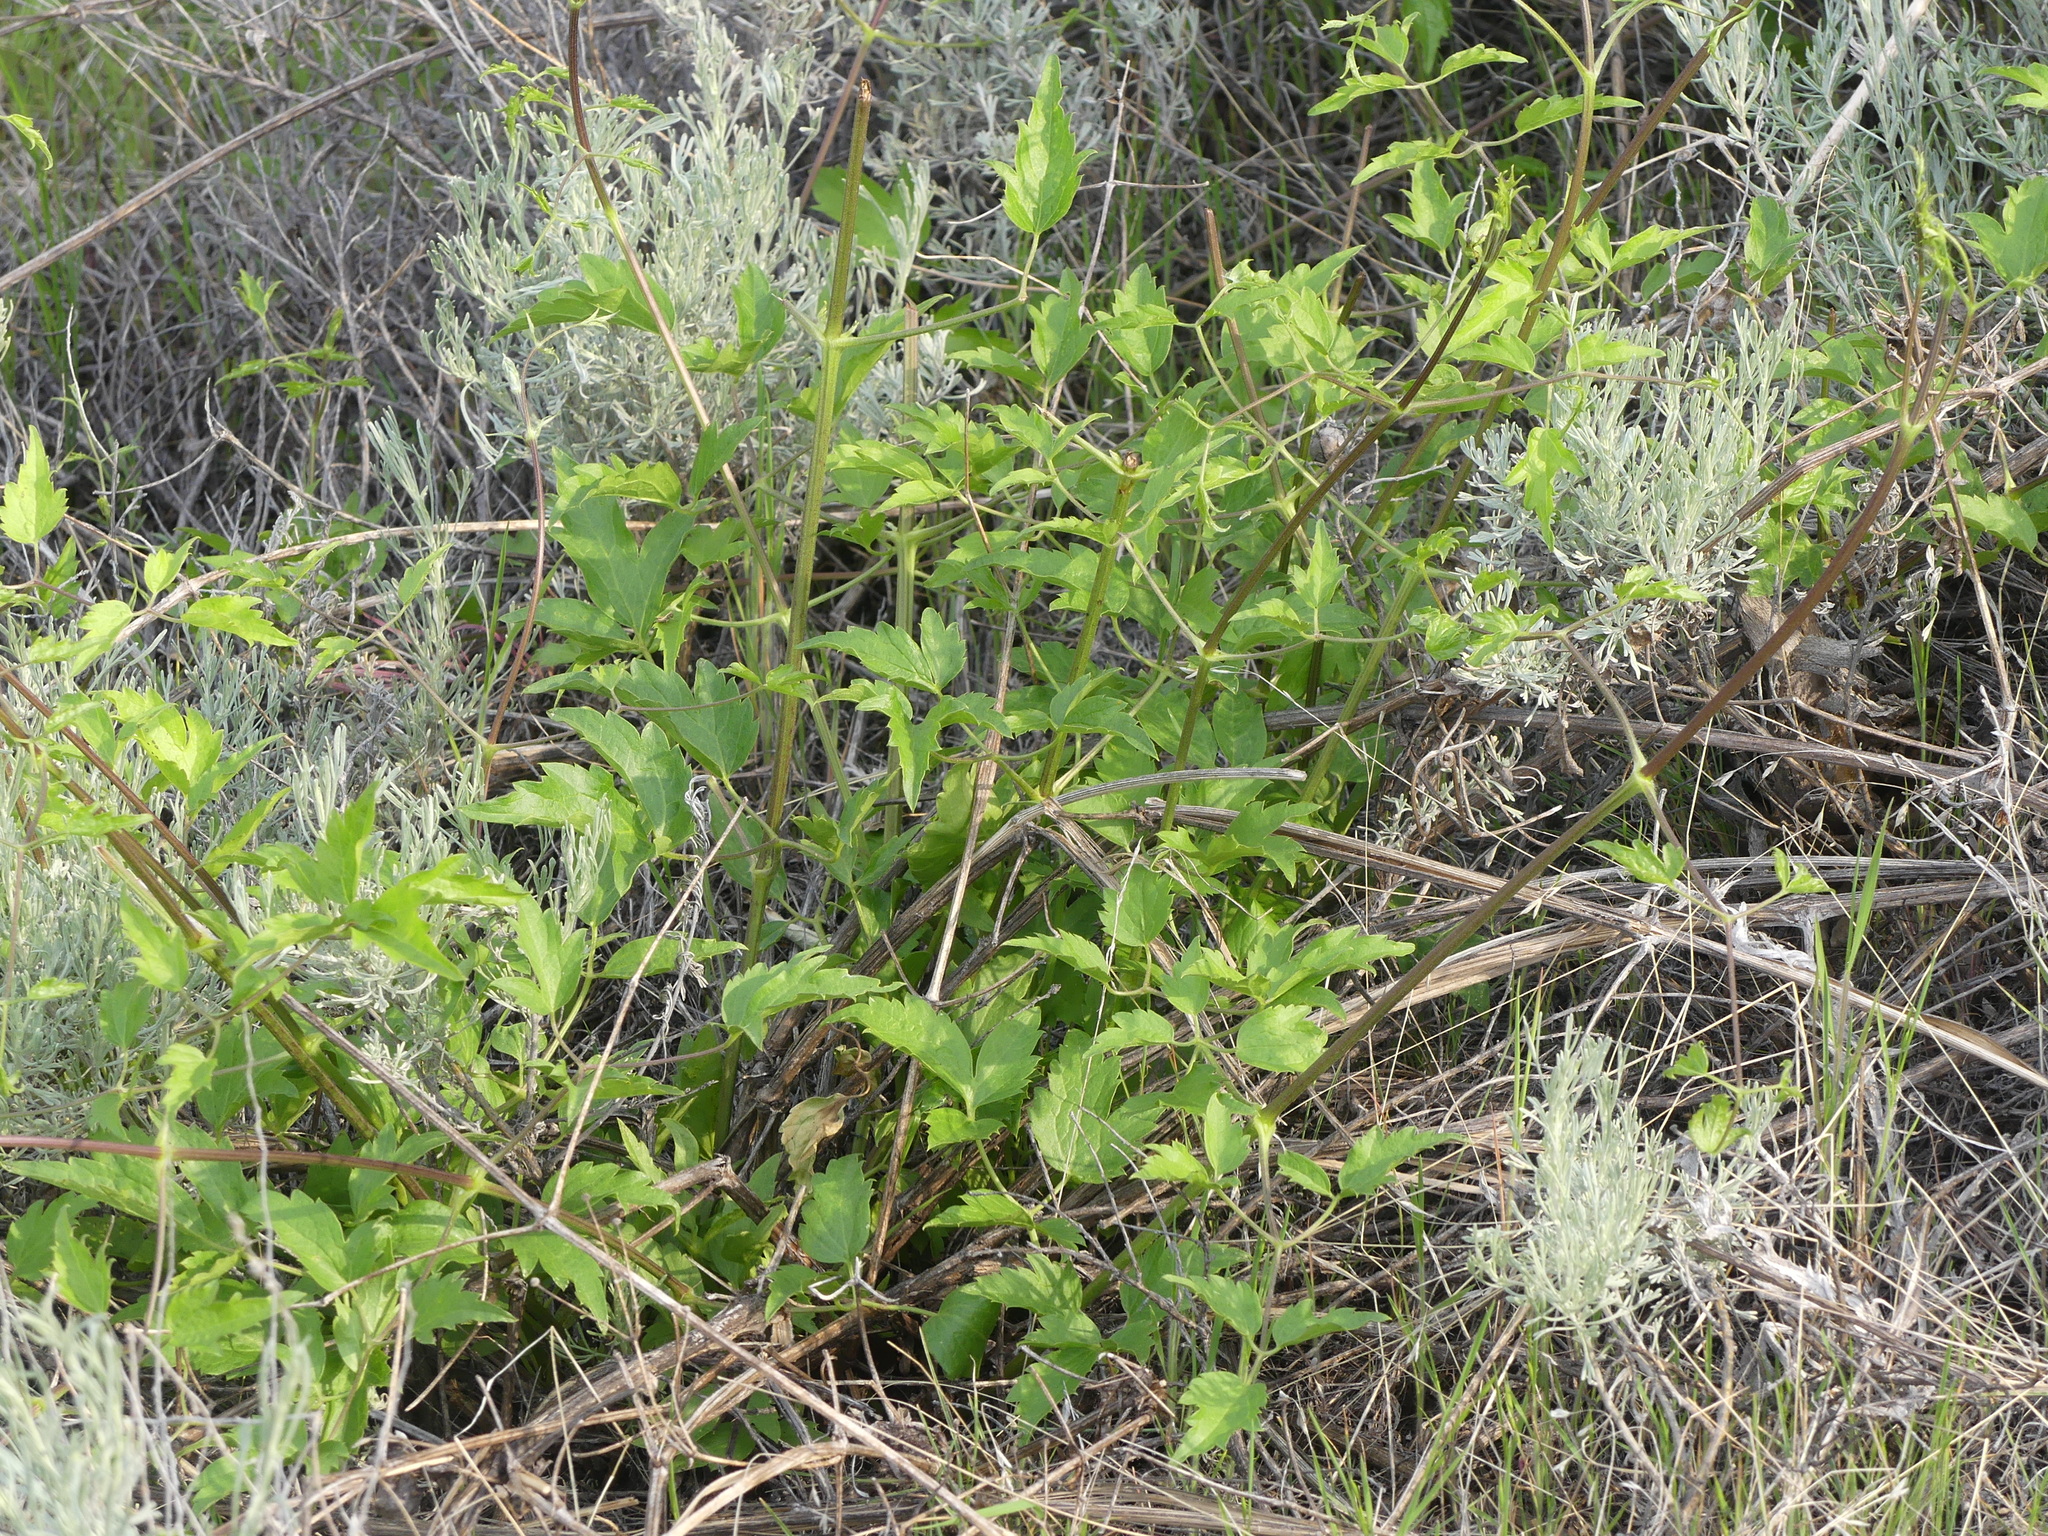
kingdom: Plantae
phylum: Tracheophyta
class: Magnoliopsida
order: Ranunculales
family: Ranunculaceae
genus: Clematis
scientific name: Clematis ligusticifolia
